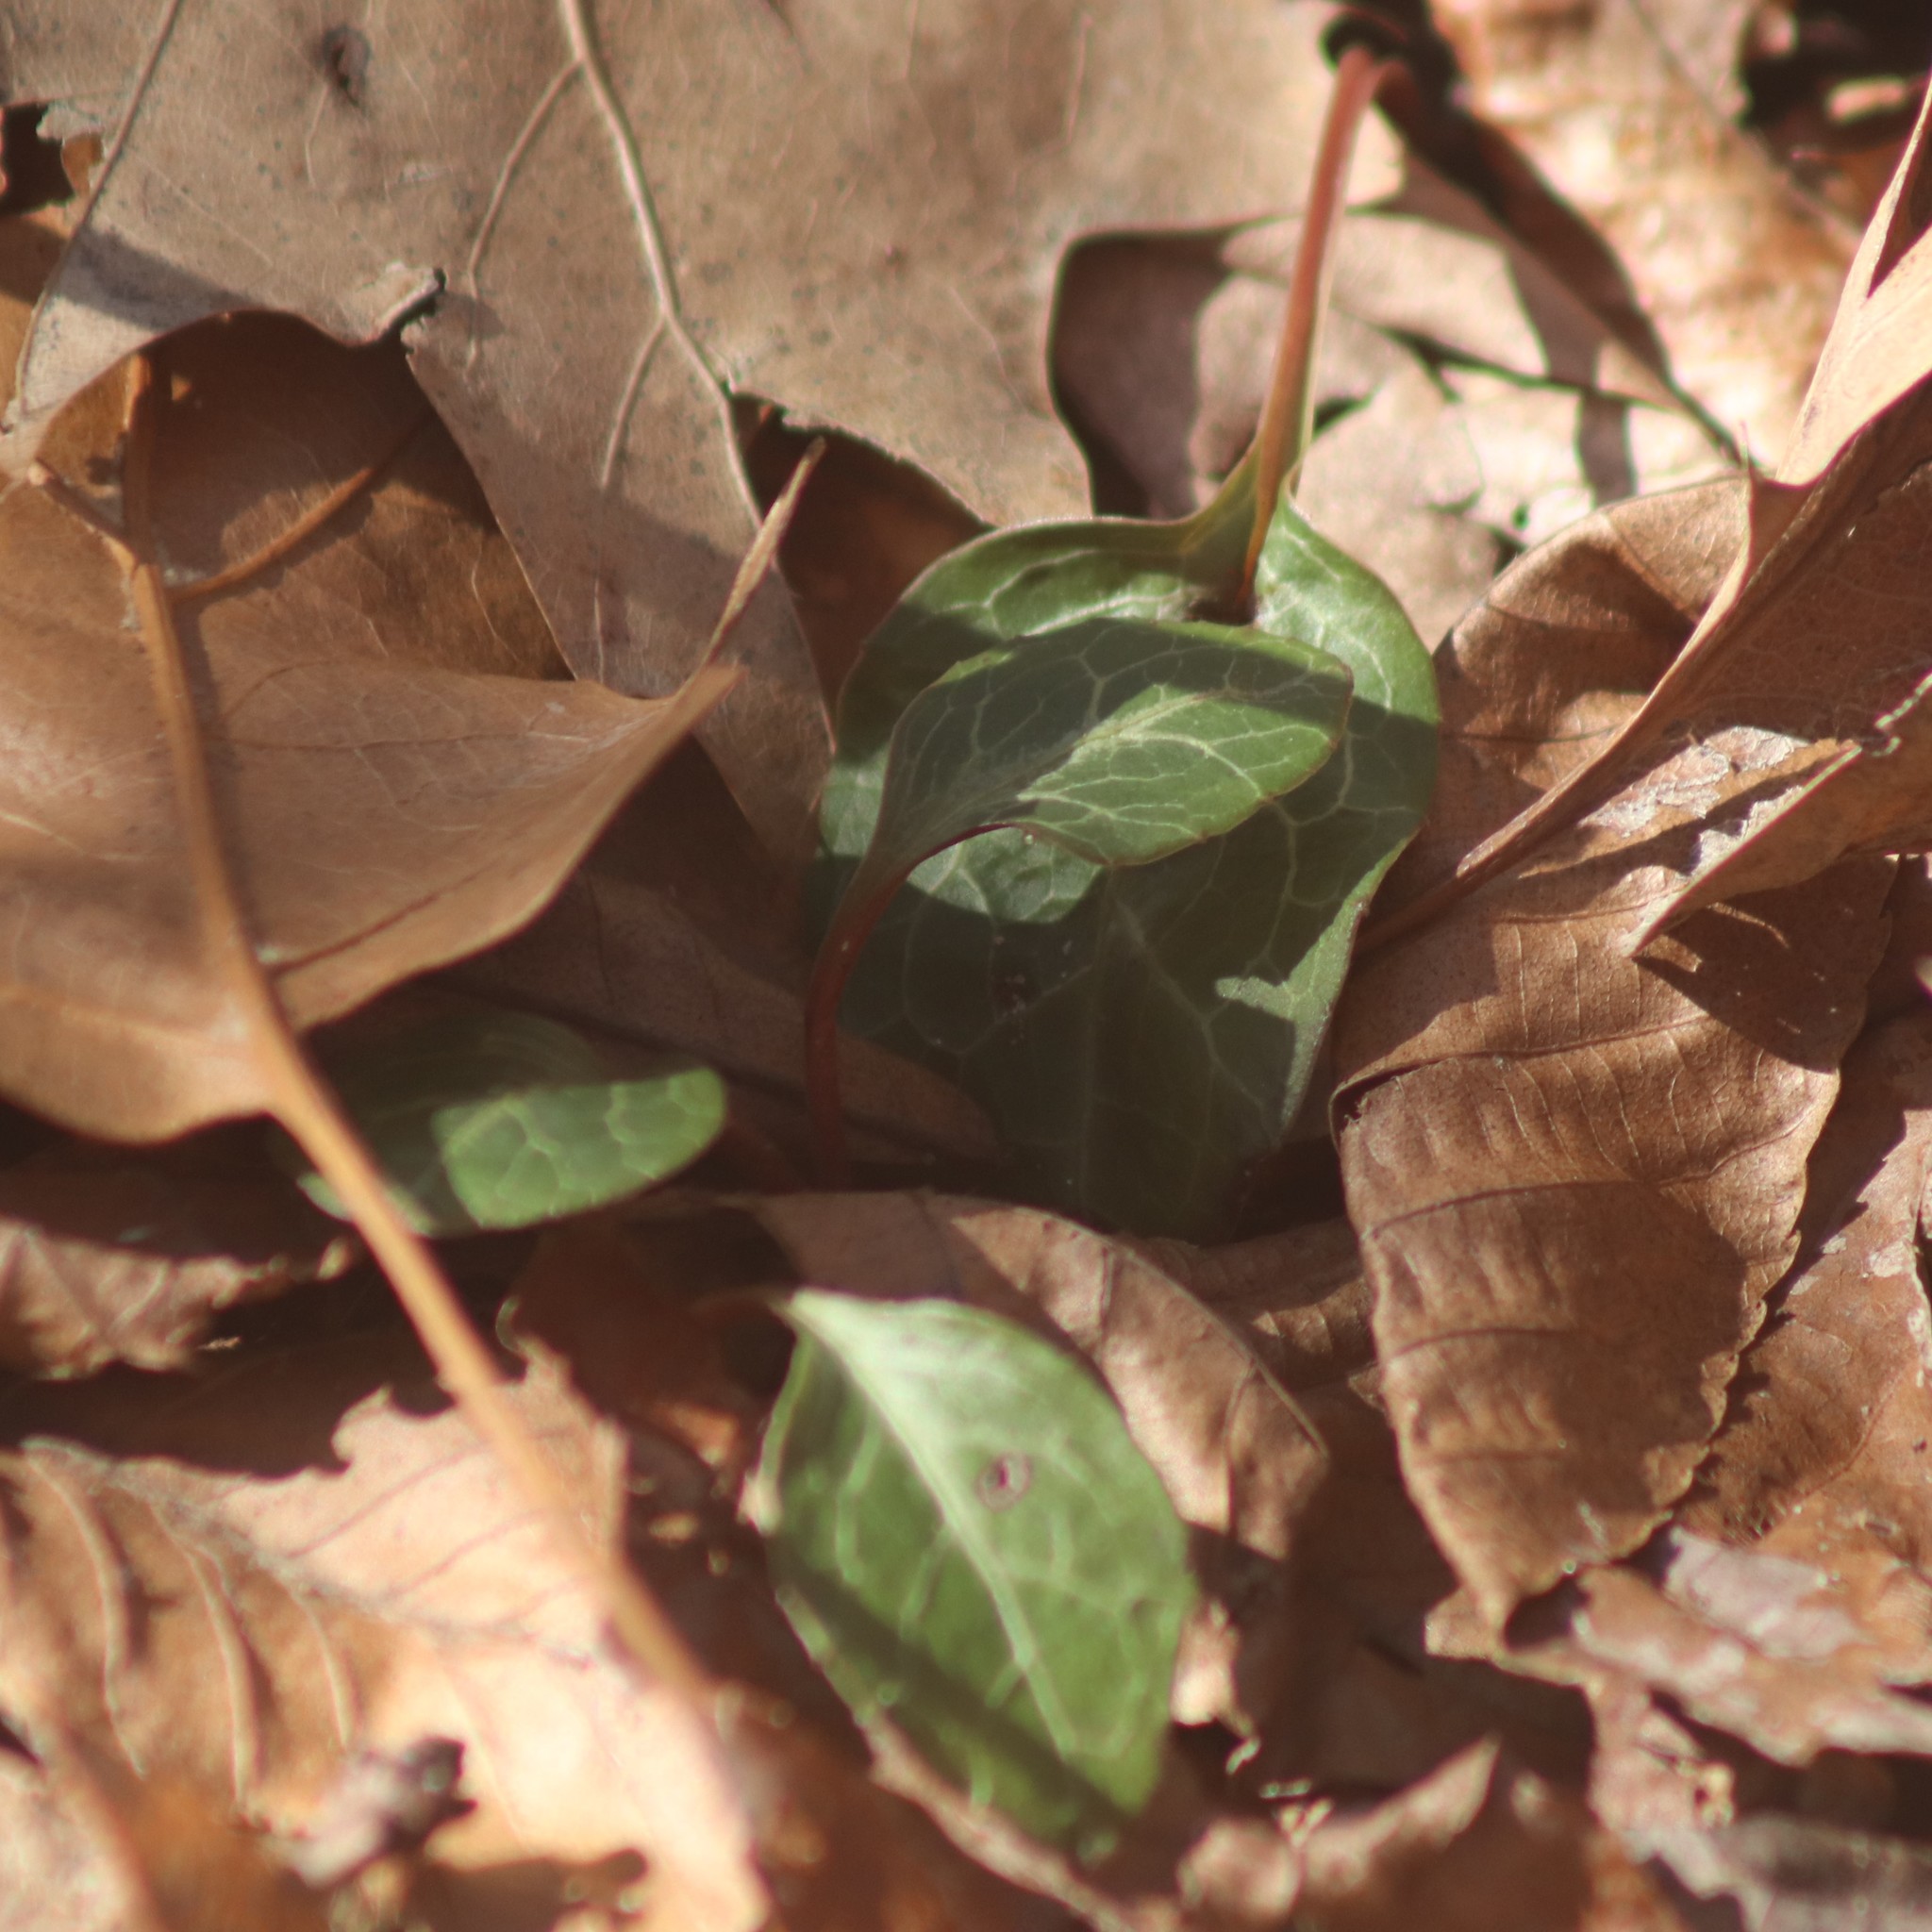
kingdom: Plantae
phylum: Tracheophyta
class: Magnoliopsida
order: Ericales
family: Ericaceae
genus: Pyrola
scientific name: Pyrola americana
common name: American wintergreen
